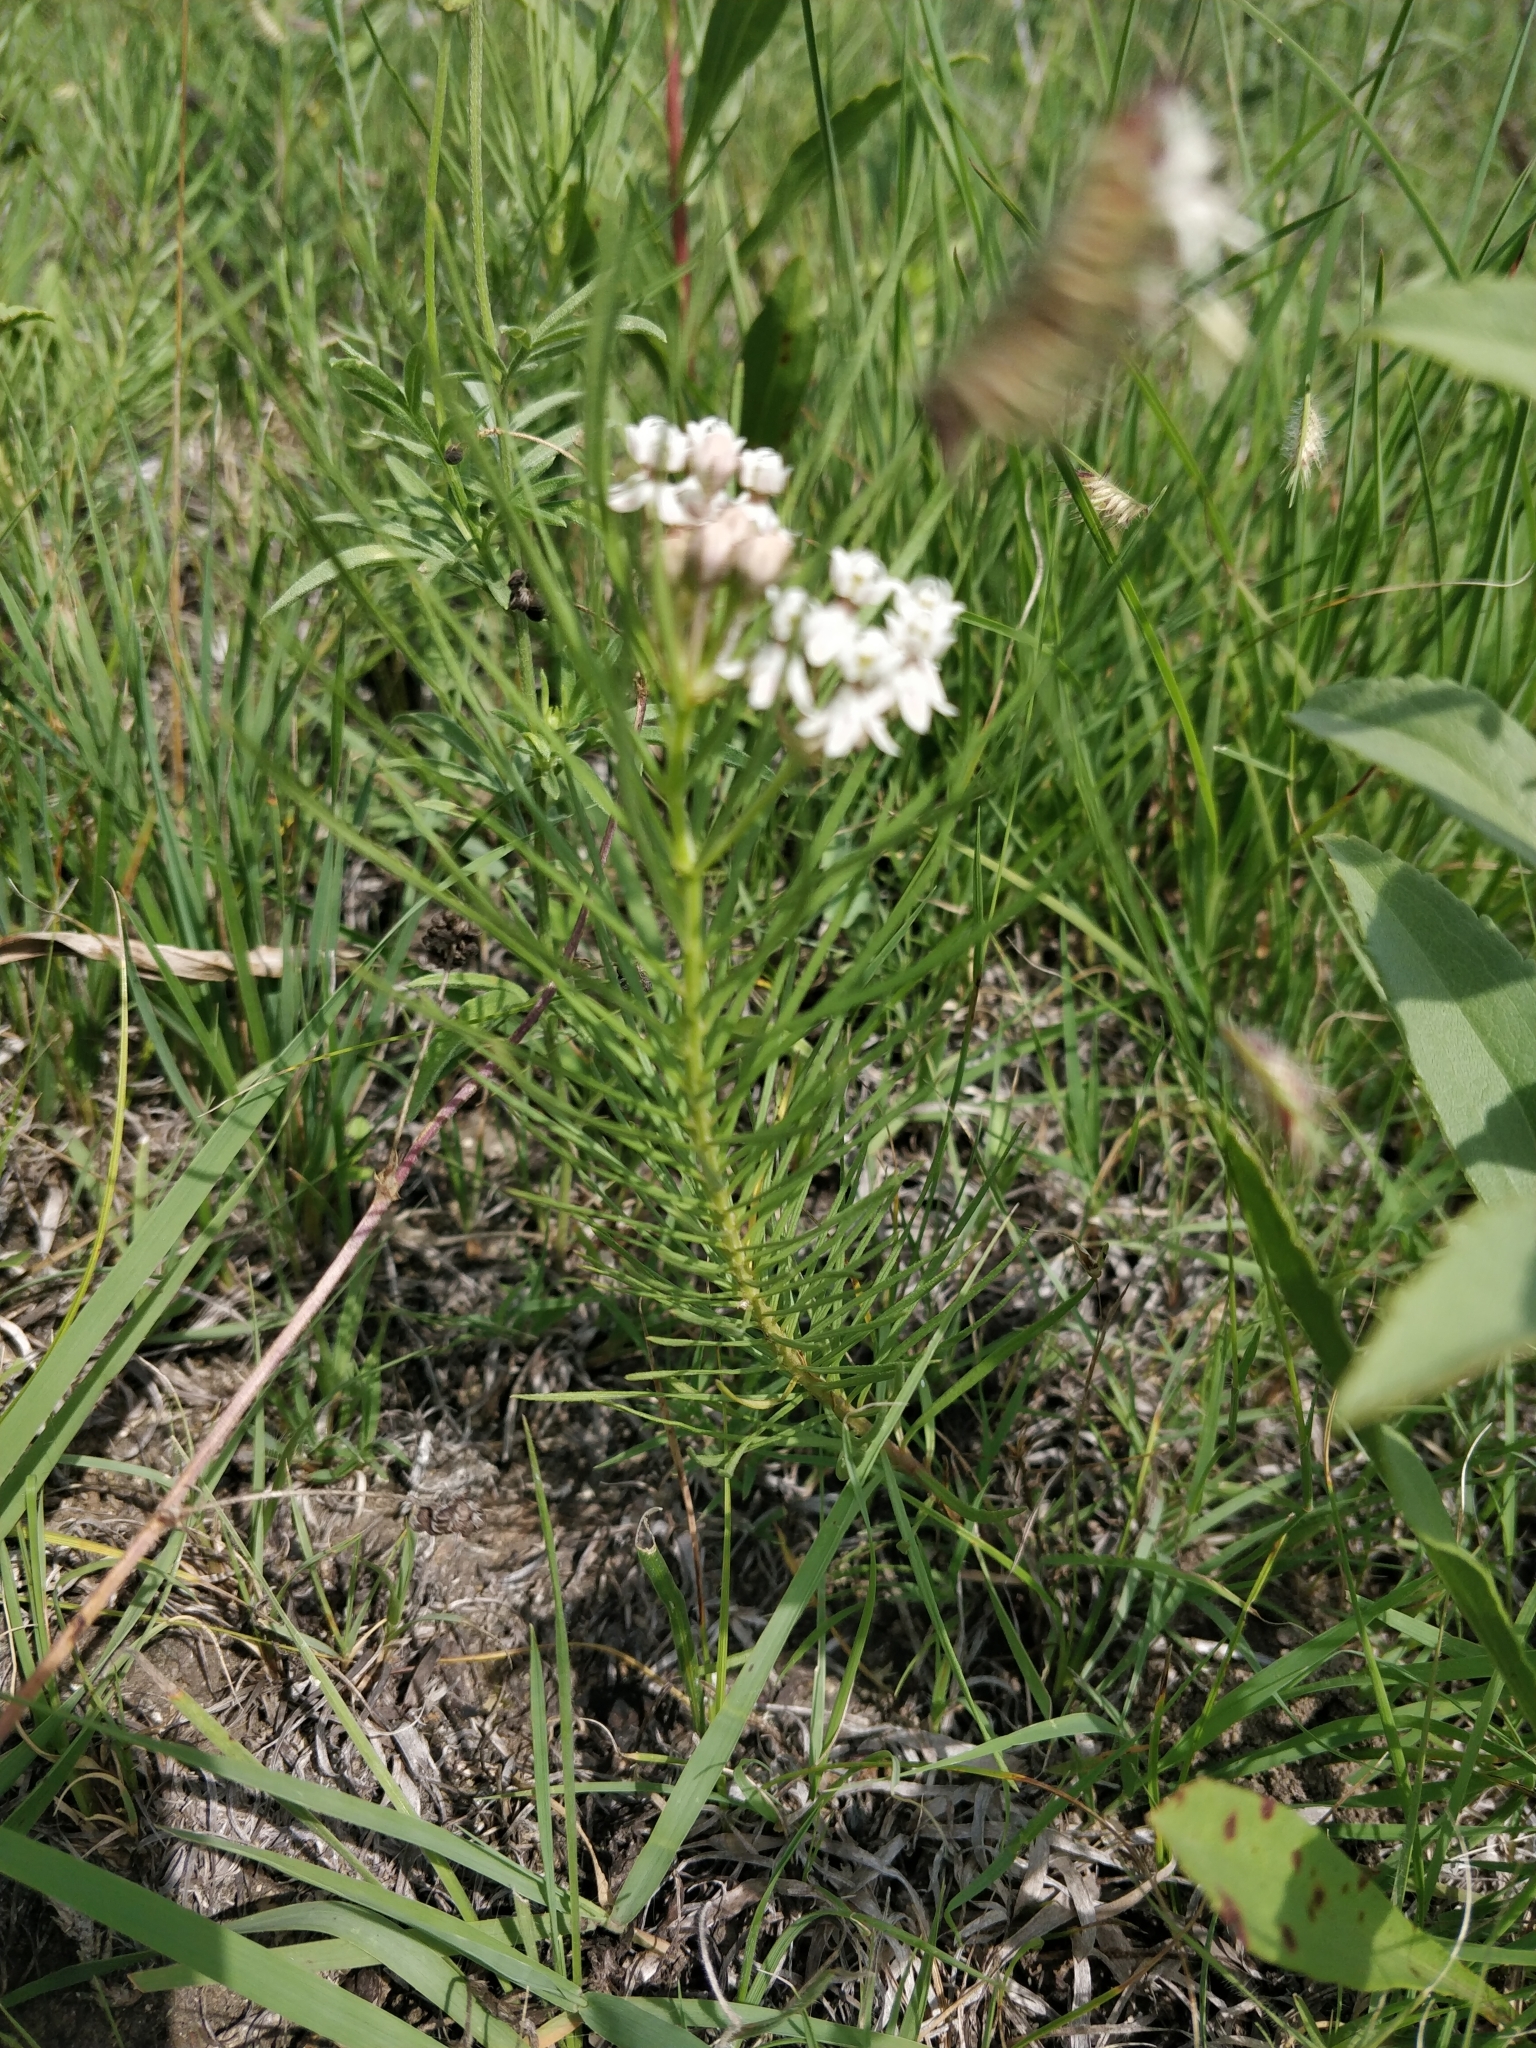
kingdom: Plantae
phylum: Tracheophyta
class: Magnoliopsida
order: Gentianales
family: Apocynaceae
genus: Asclepias
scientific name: Asclepias pumila
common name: Dwarf milkweed
